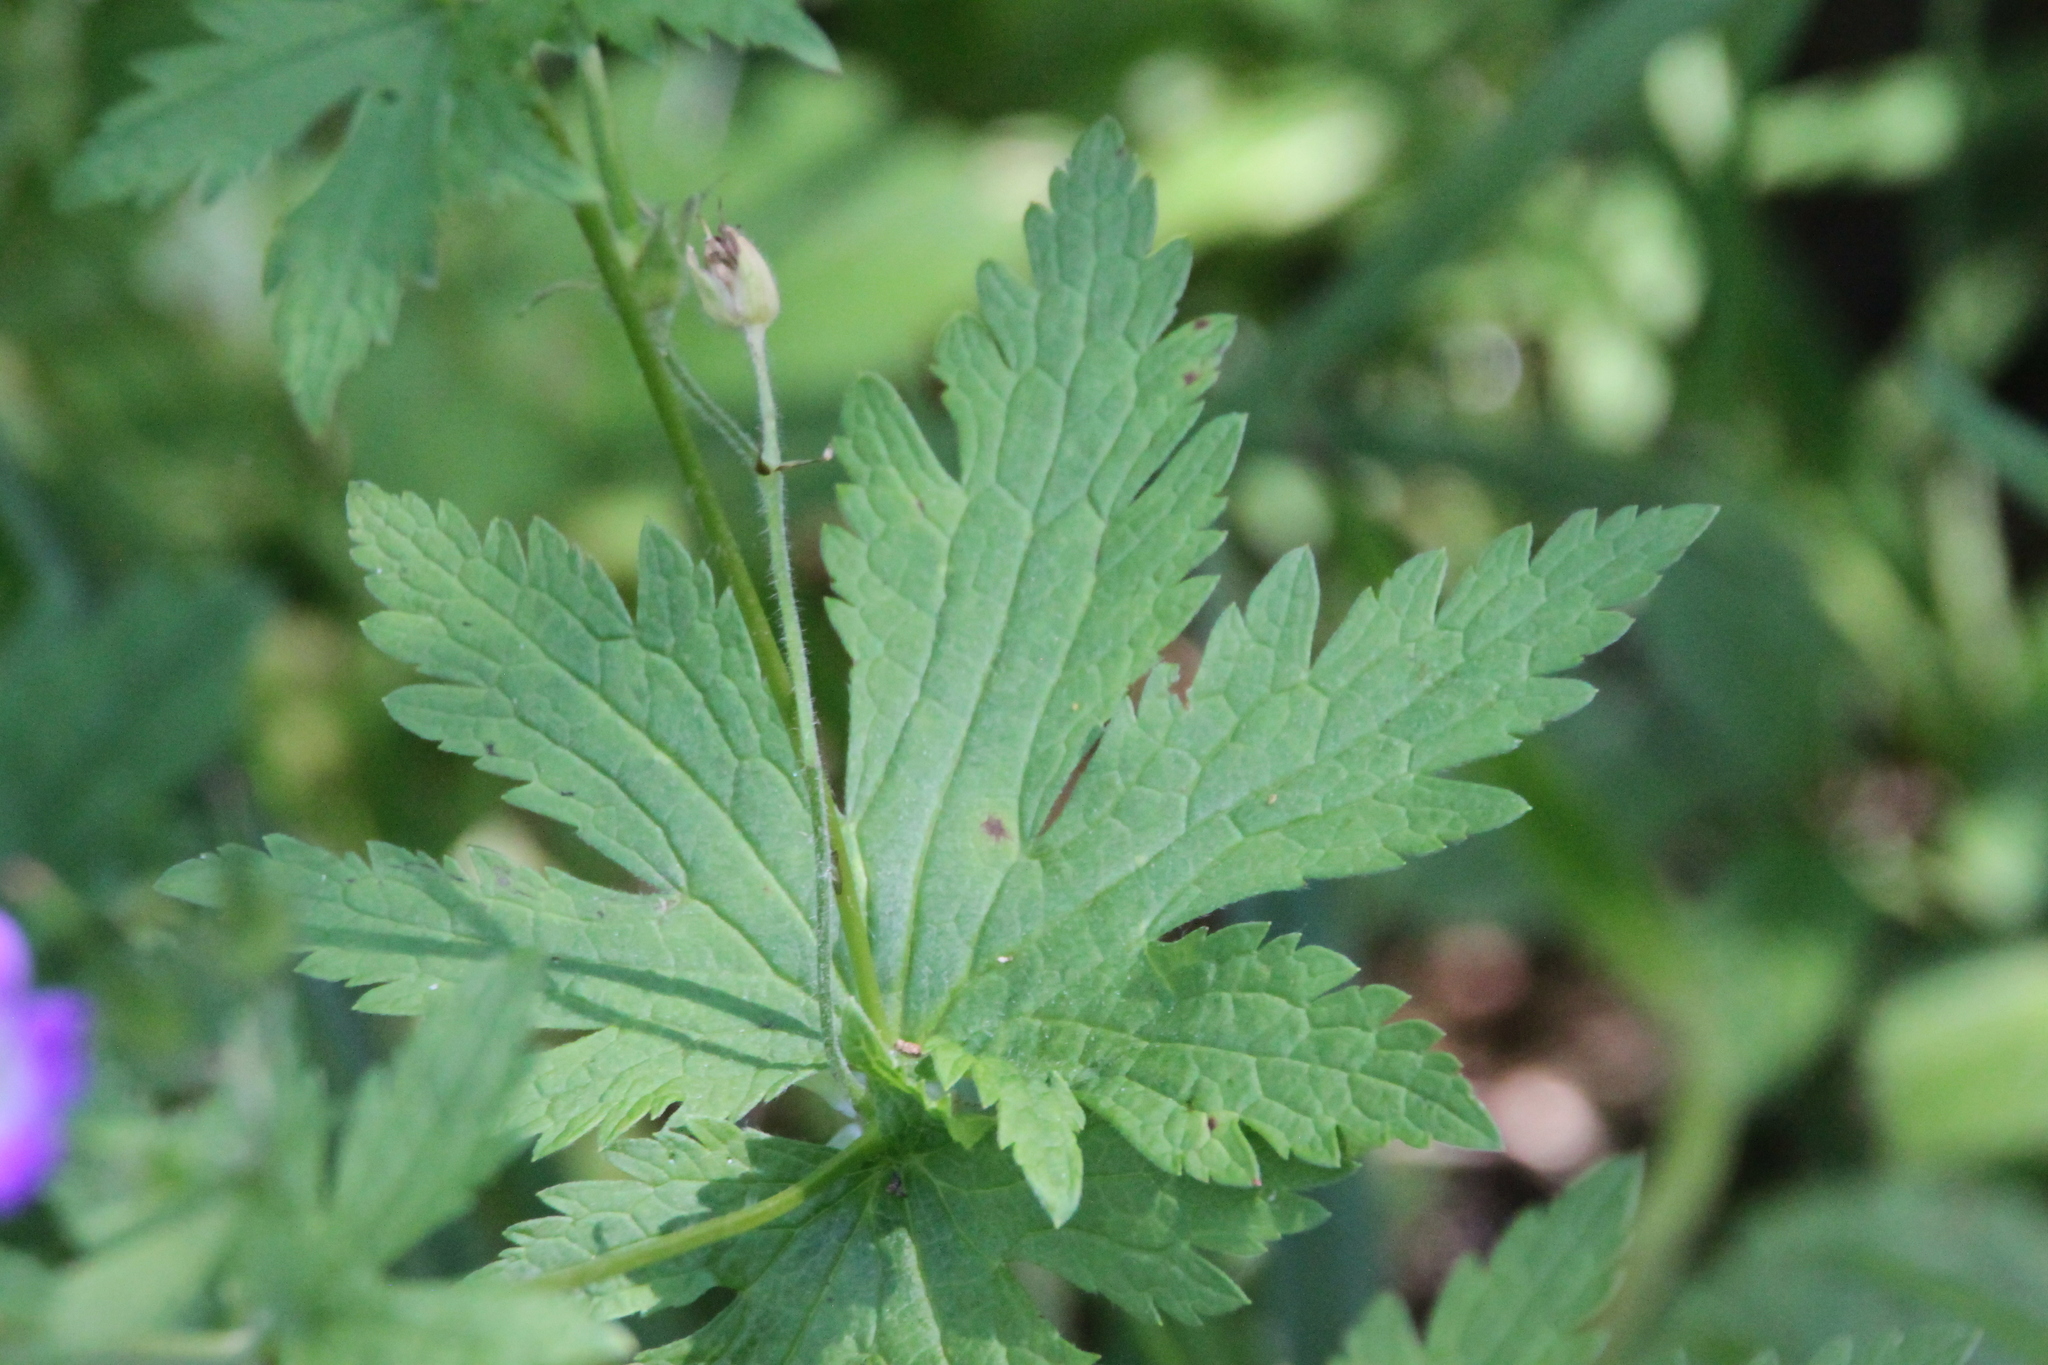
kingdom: Plantae
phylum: Tracheophyta
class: Magnoliopsida
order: Geraniales
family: Geraniaceae
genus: Geranium
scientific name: Geranium sylvaticum
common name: Wood crane's-bill
